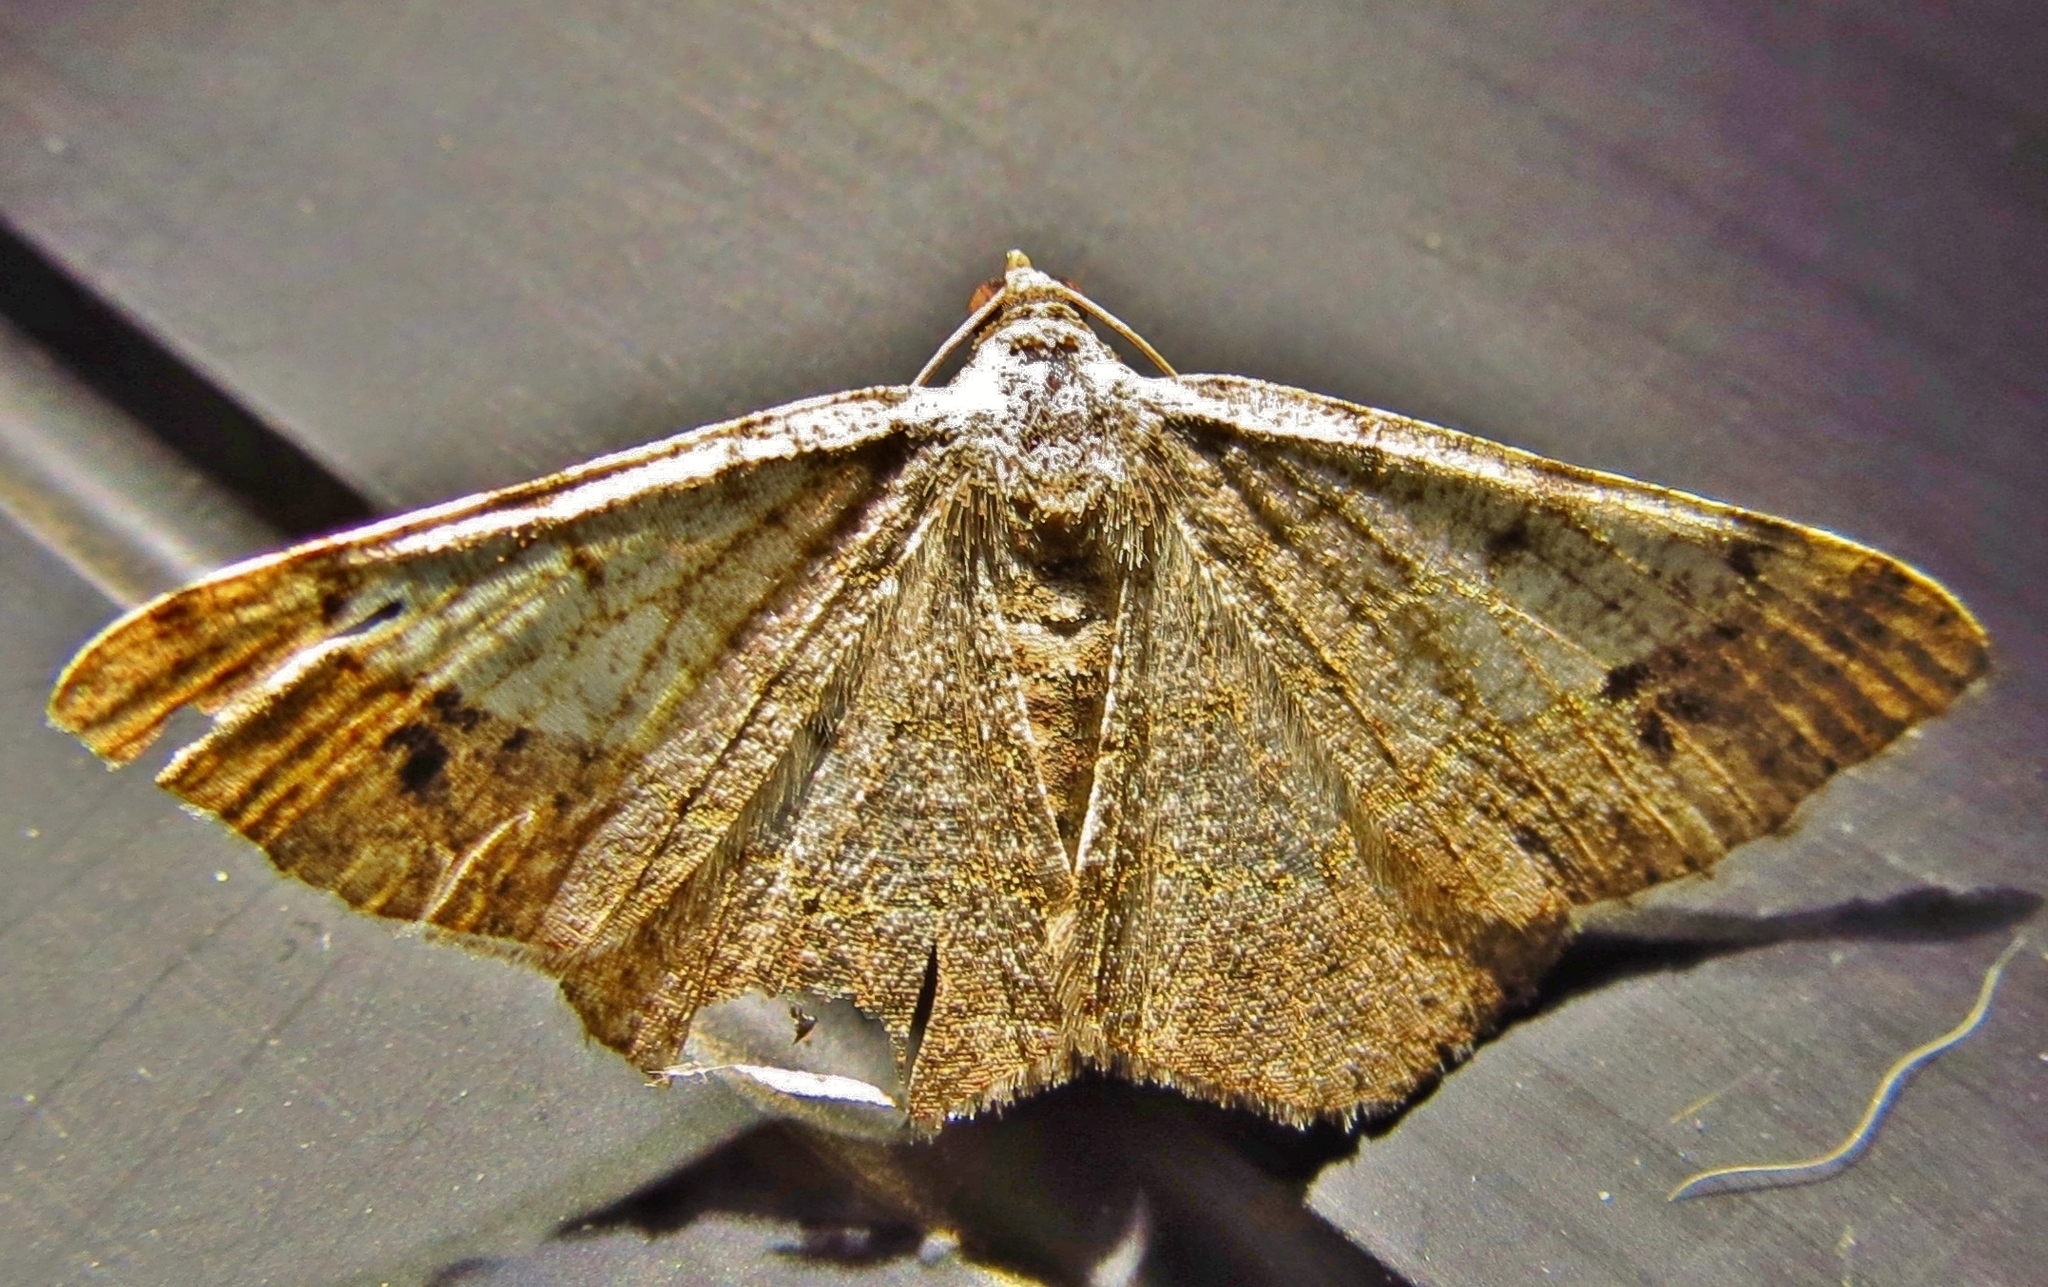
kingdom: Animalia
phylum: Arthropoda
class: Insecta
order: Lepidoptera
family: Geometridae
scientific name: Geometridae
